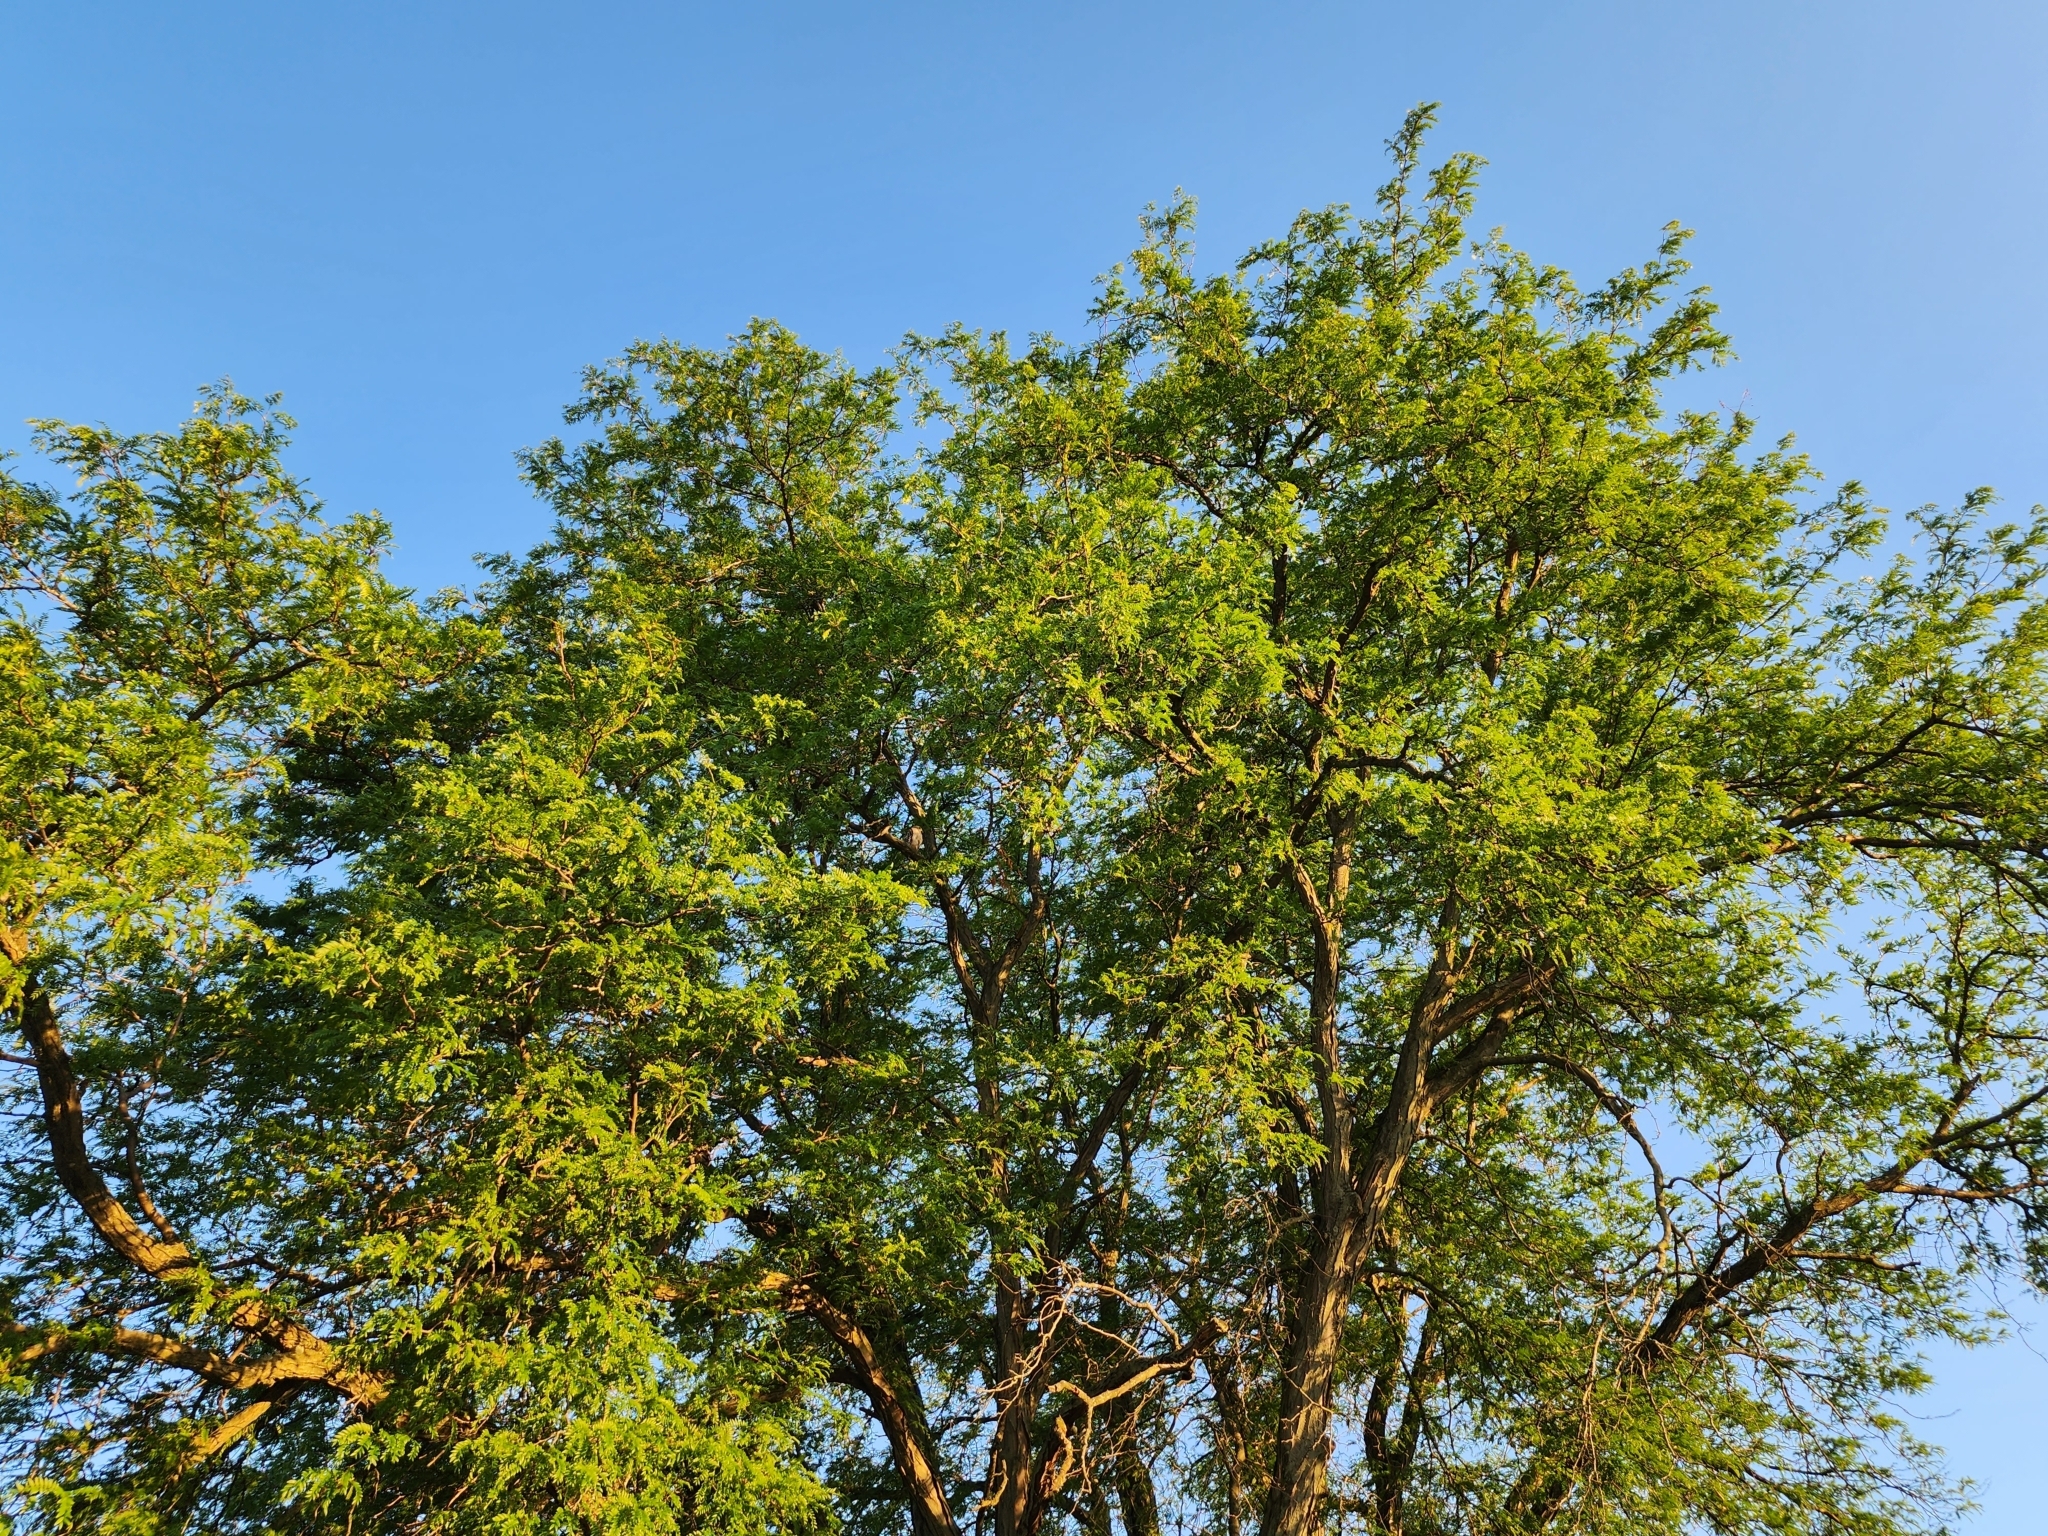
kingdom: Animalia
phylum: Chordata
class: Aves
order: Accipitriformes
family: Accipitridae
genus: Buteo
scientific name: Buteo lineatus
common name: Red-shouldered hawk
